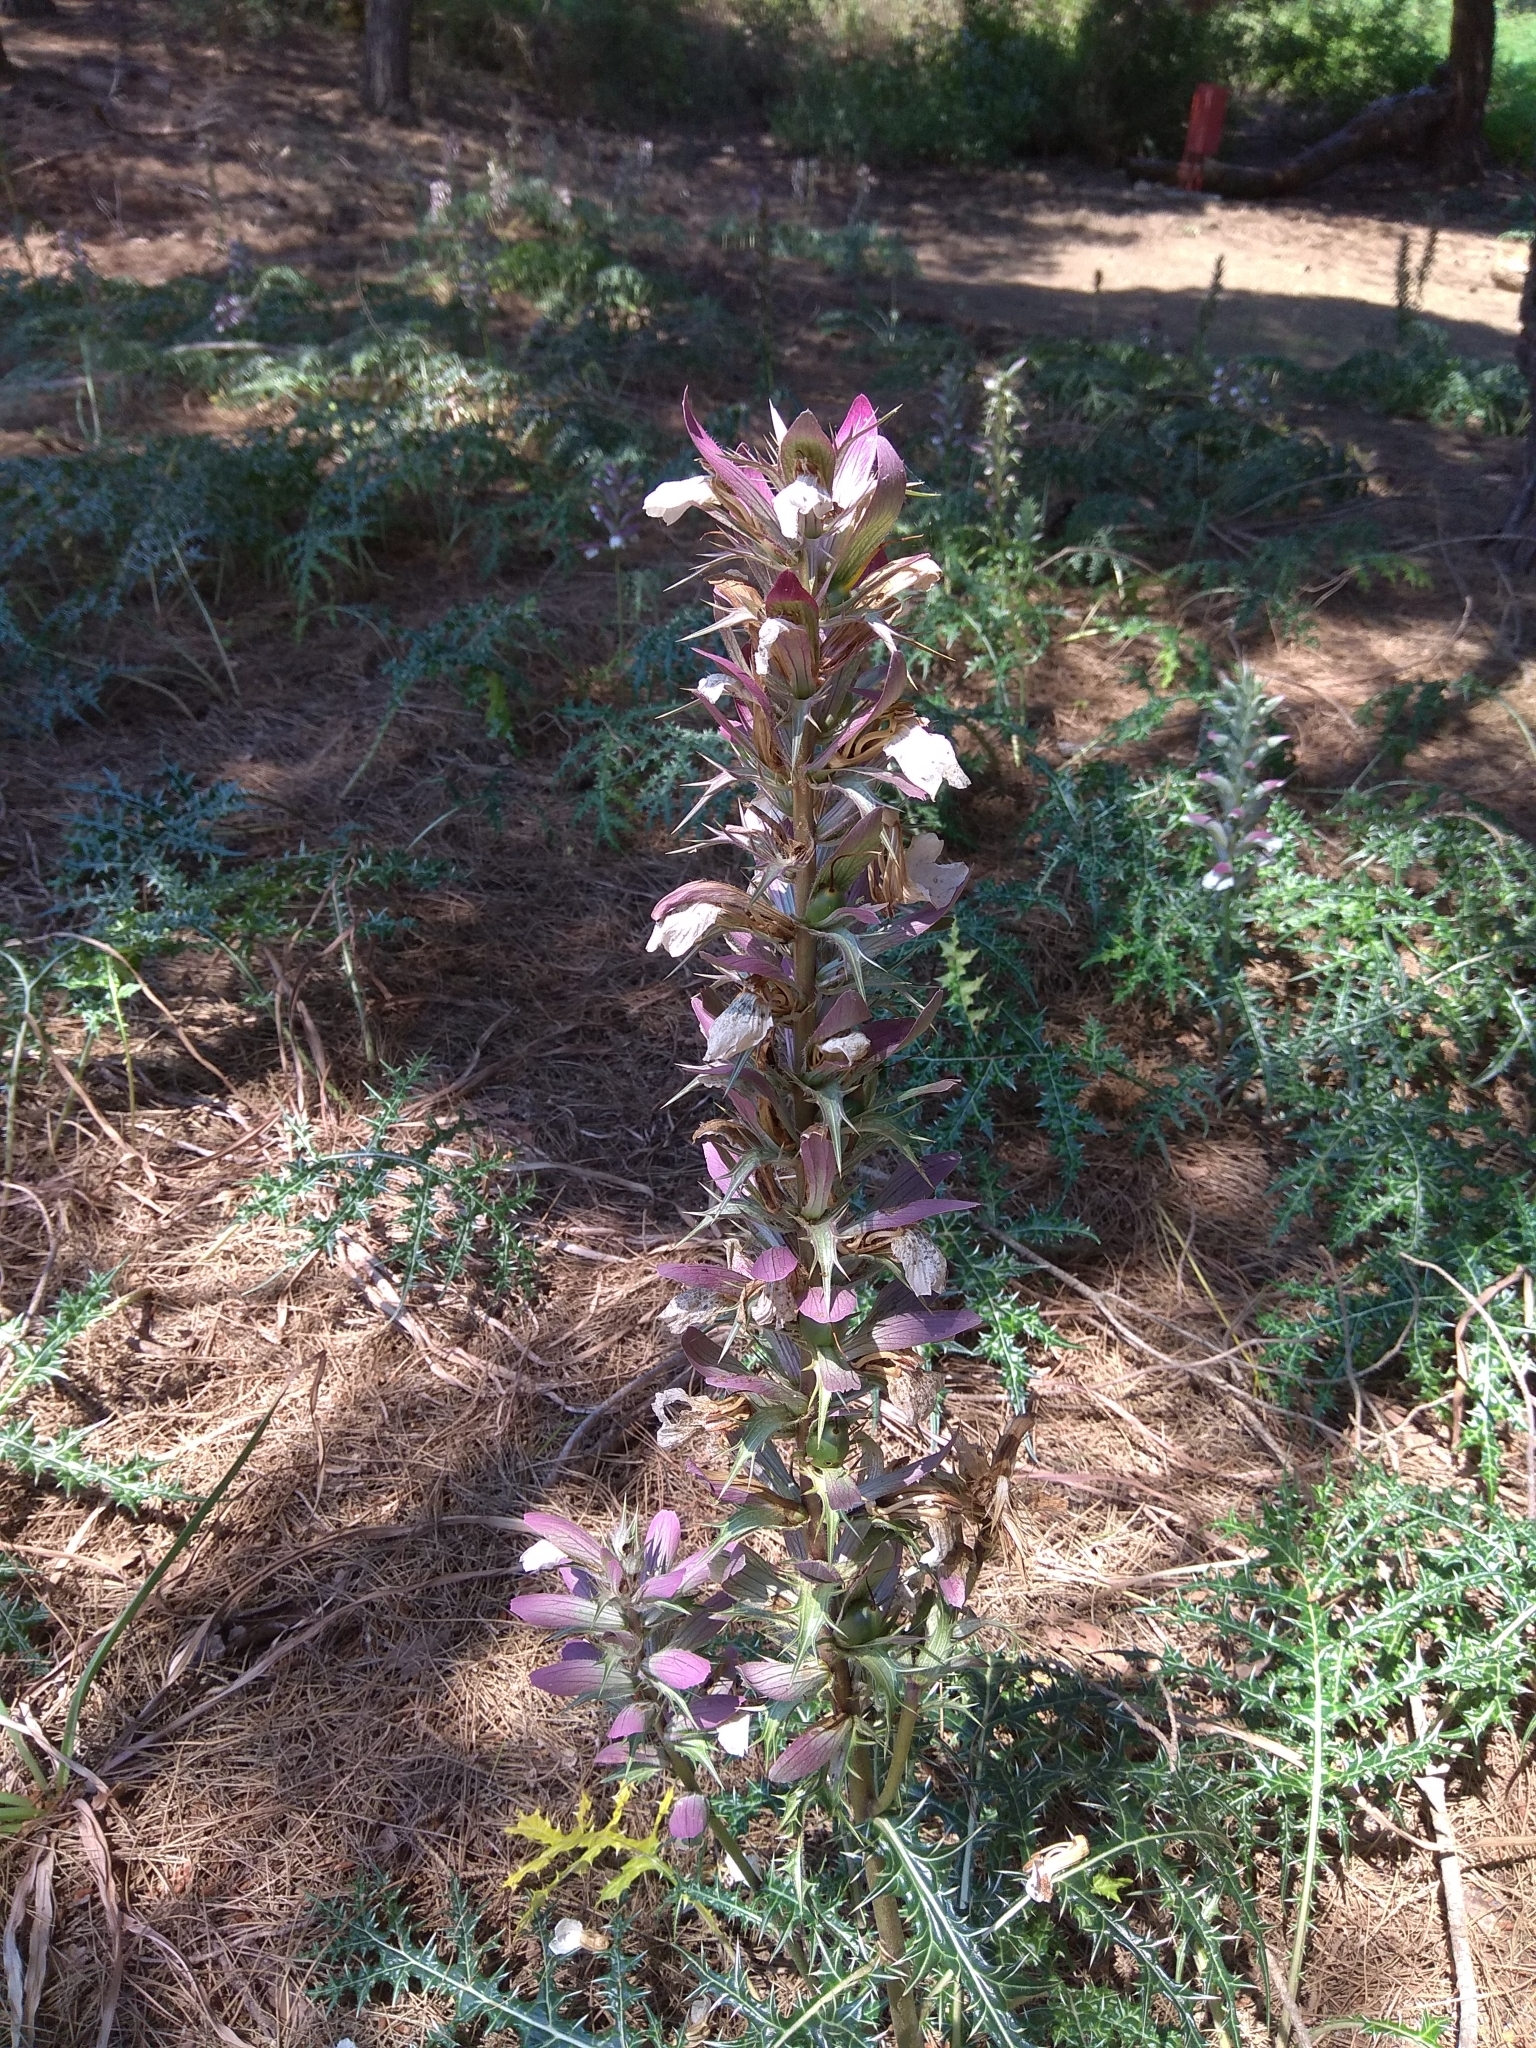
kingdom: Plantae
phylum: Tracheophyta
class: Magnoliopsida
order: Lamiales
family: Acanthaceae
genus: Acanthus
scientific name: Acanthus spinosus
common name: Spiny bear's-breech
